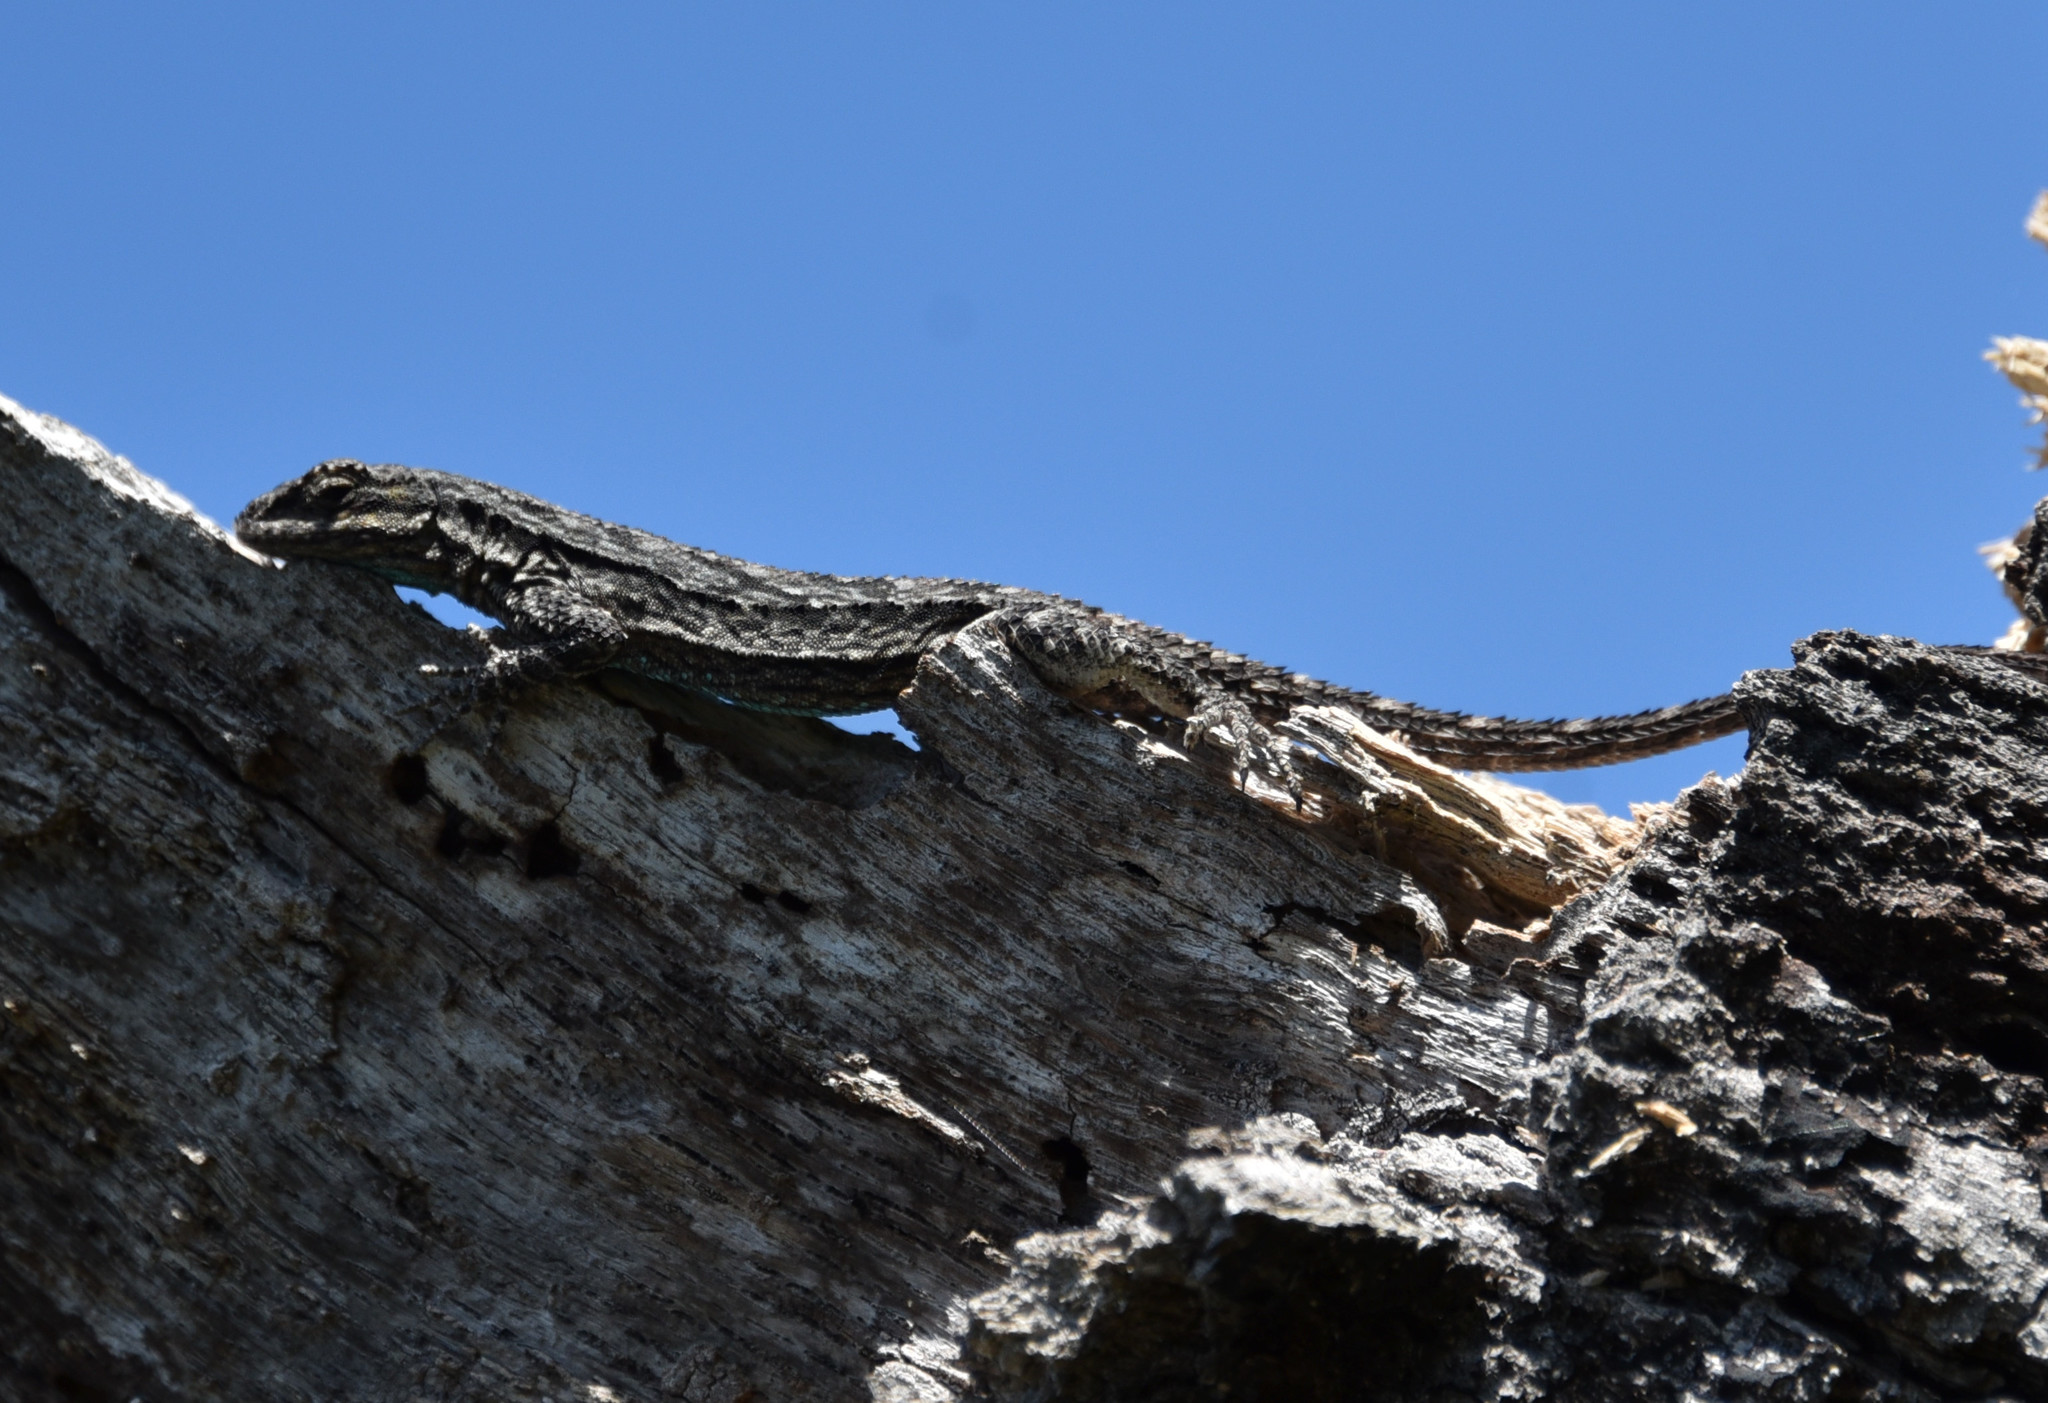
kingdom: Animalia
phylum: Chordata
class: Squamata
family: Phrynosomatidae
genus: Urosaurus
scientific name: Urosaurus ornatus
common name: Ornate tree lizard
